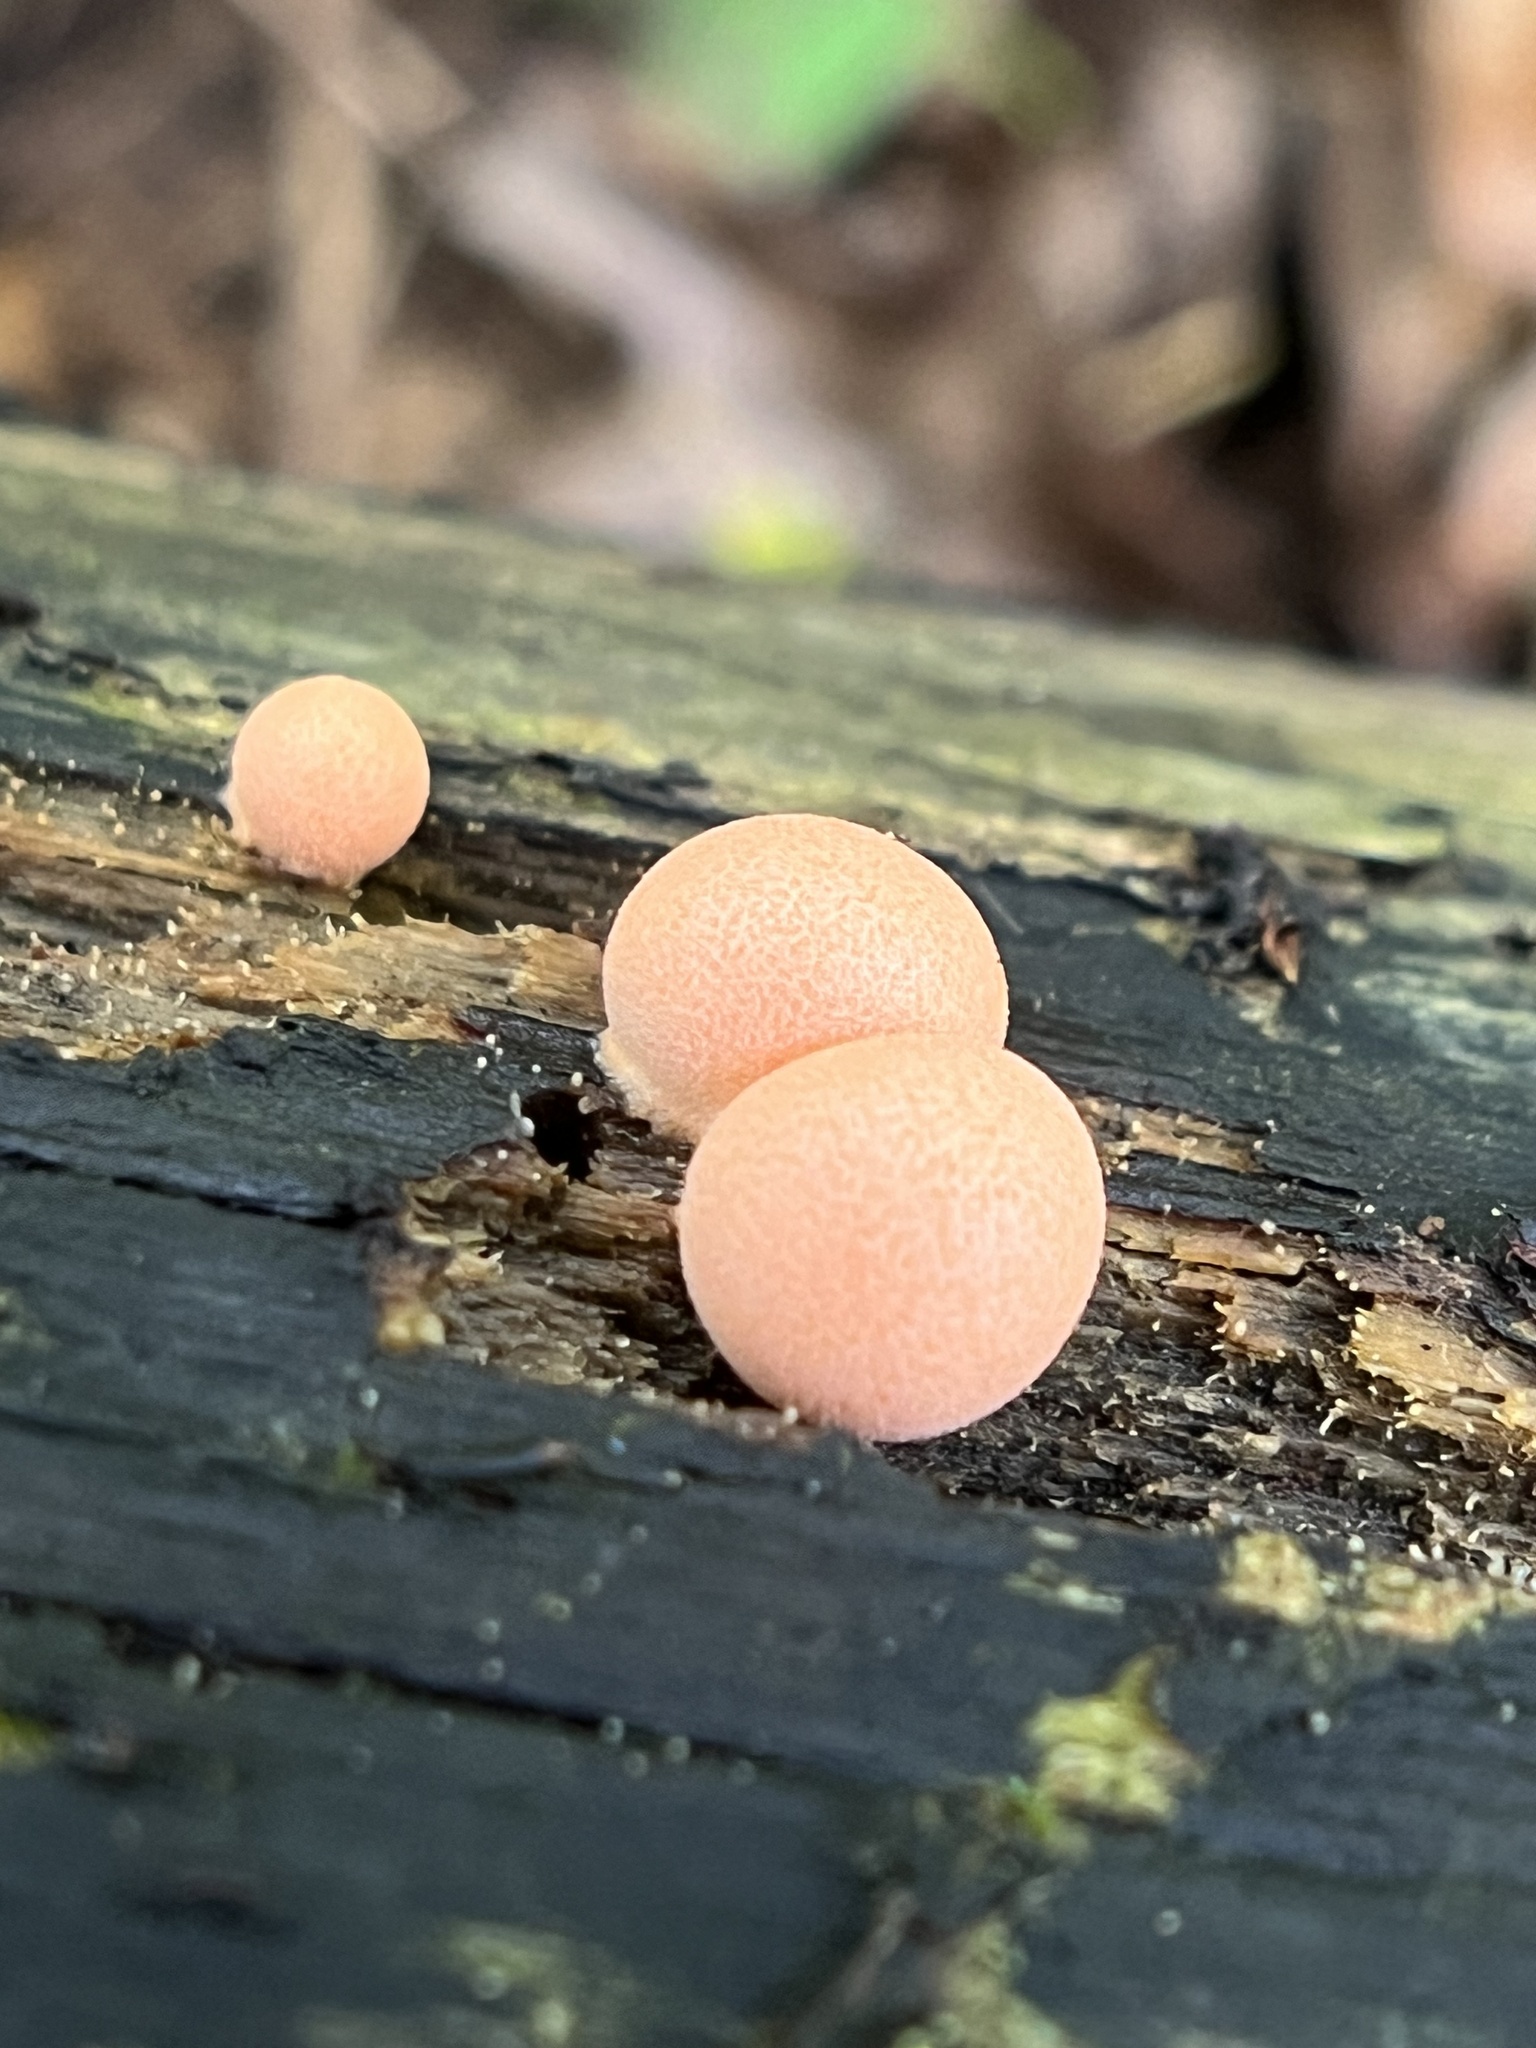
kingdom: Protozoa
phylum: Mycetozoa
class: Myxomycetes
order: Cribrariales
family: Tubiferaceae
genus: Lycogala
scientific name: Lycogala epidendrum
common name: Wolf's milk
